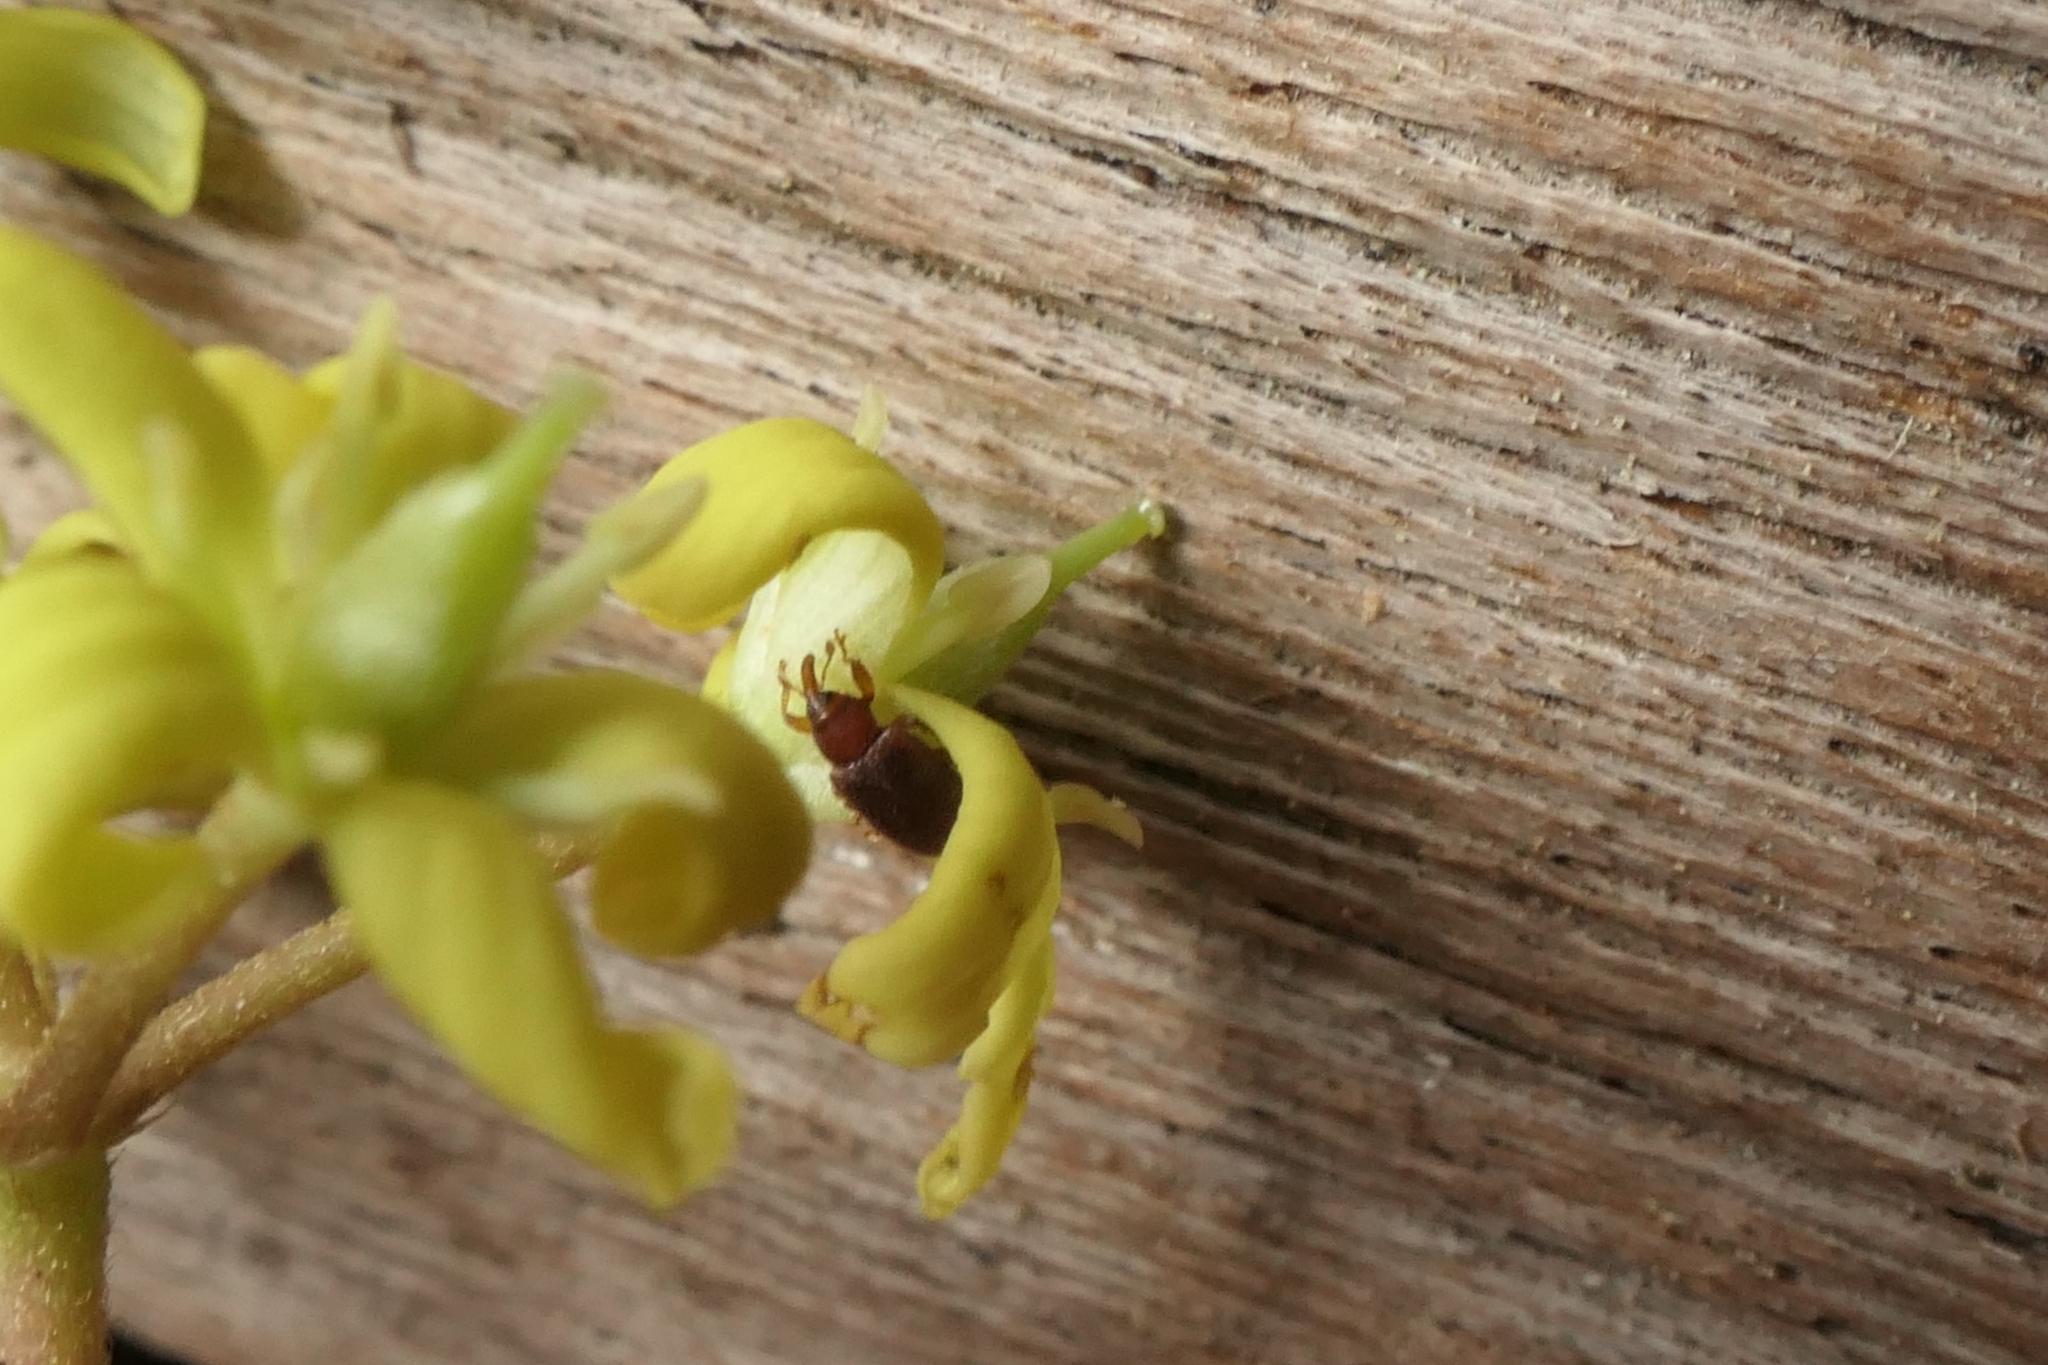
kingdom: Animalia
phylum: Arthropoda
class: Insecta
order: Coleoptera
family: Curculionidae
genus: Aneuma
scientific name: Aneuma
